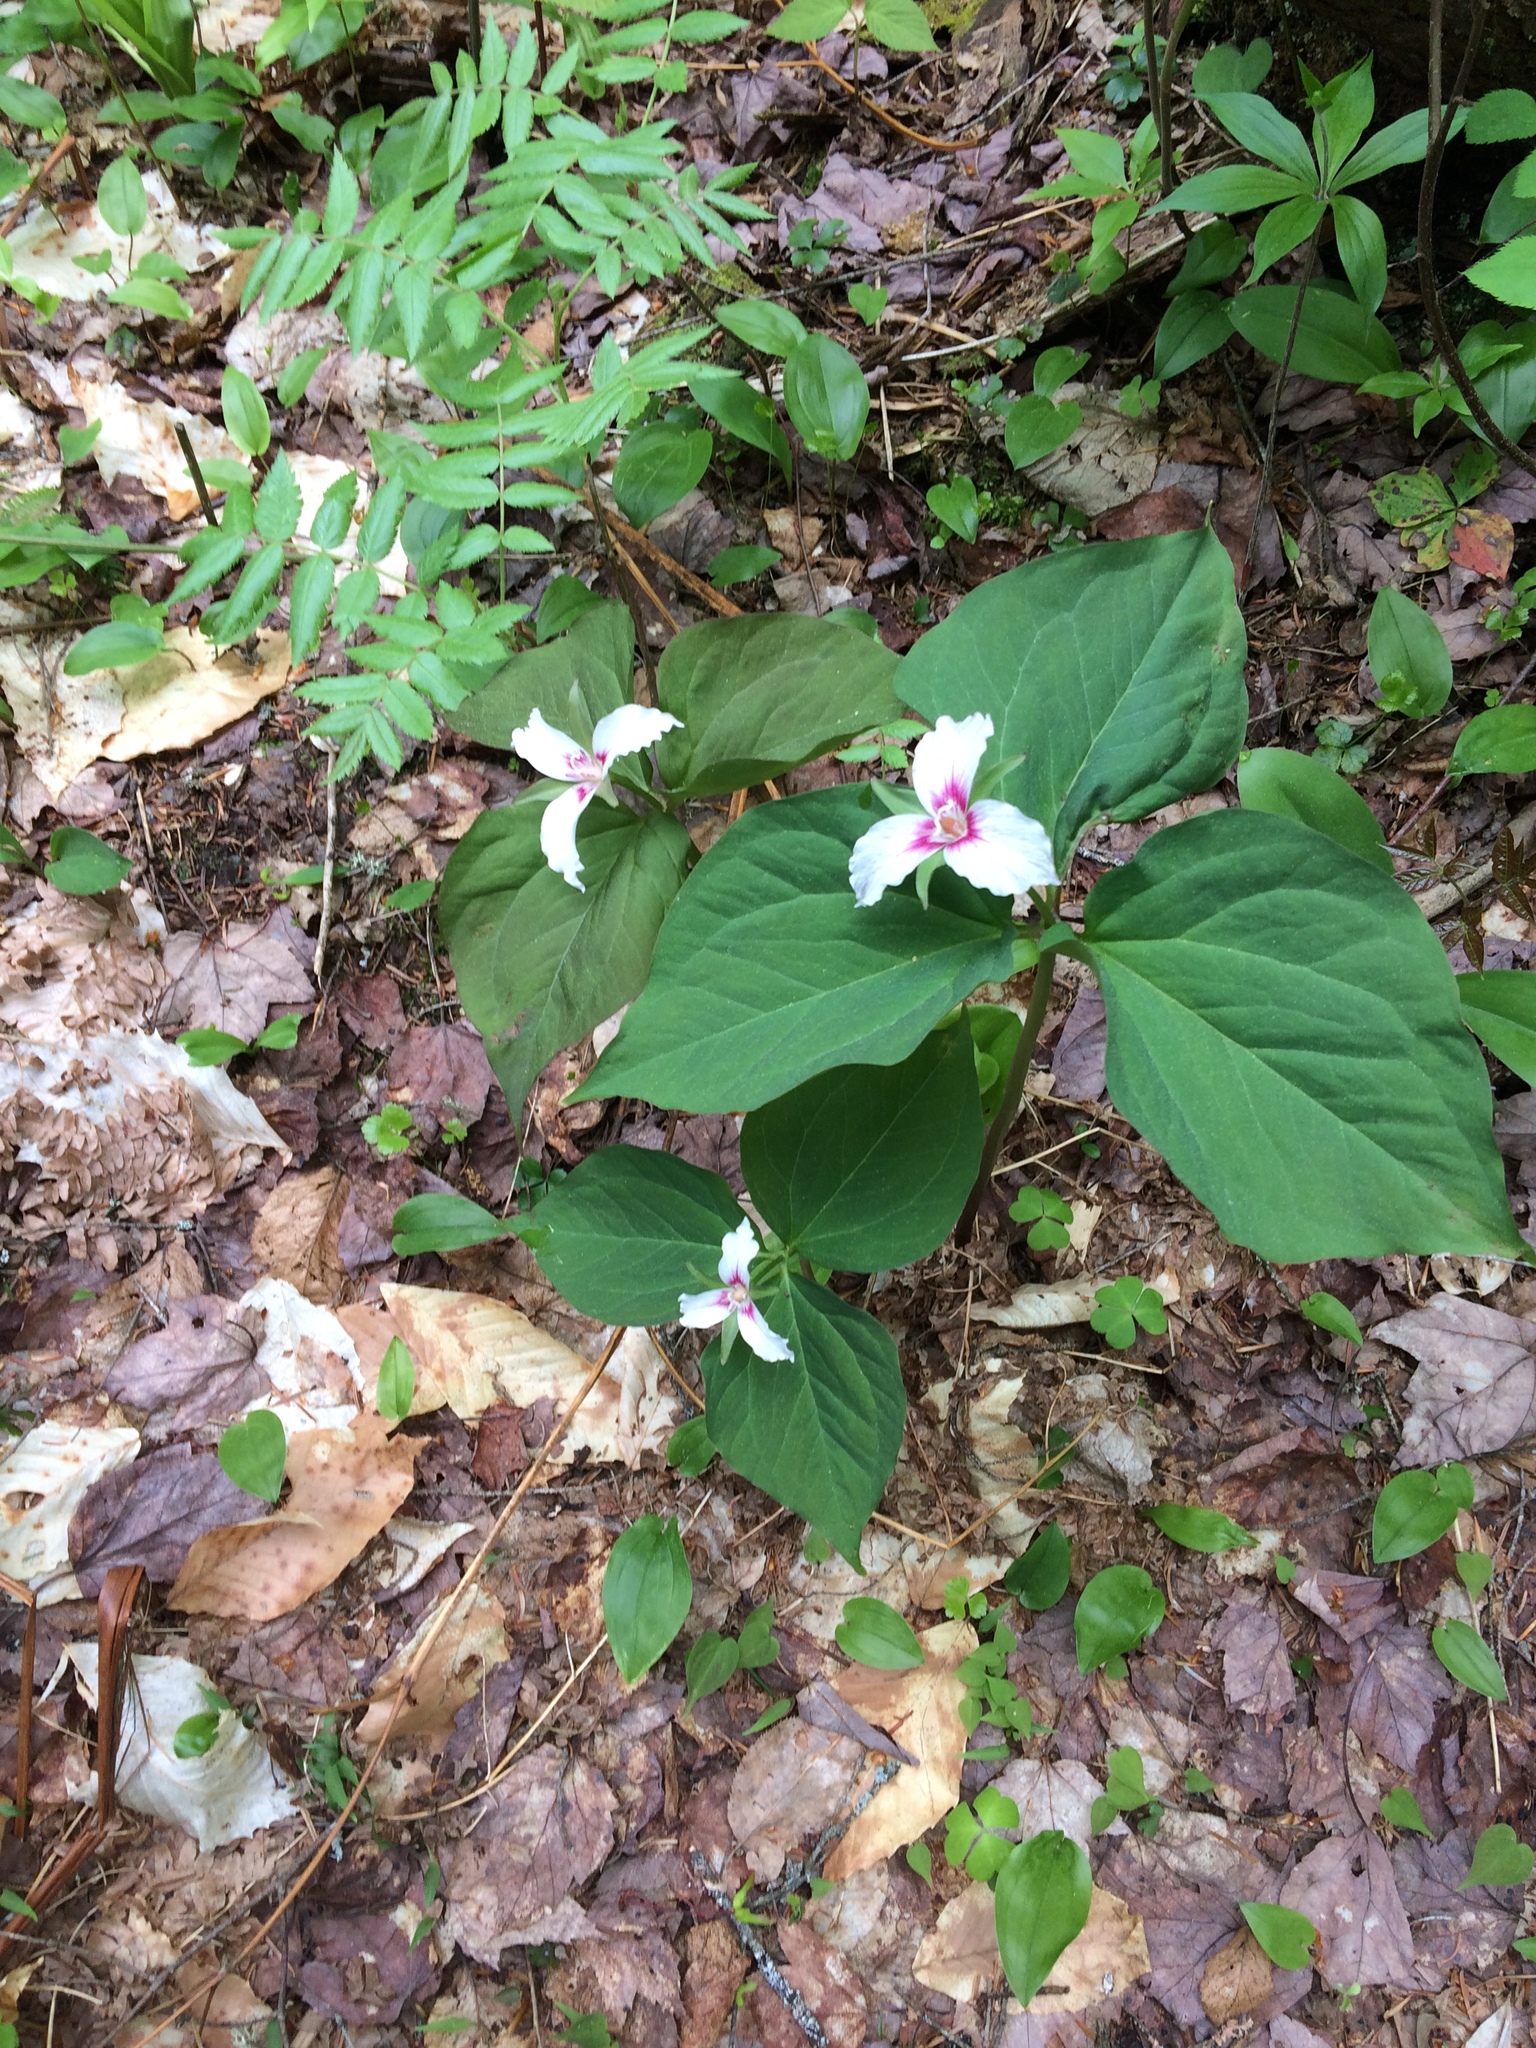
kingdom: Plantae
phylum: Tracheophyta
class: Liliopsida
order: Liliales
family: Melanthiaceae
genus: Trillium
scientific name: Trillium undulatum
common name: Paint trillium
